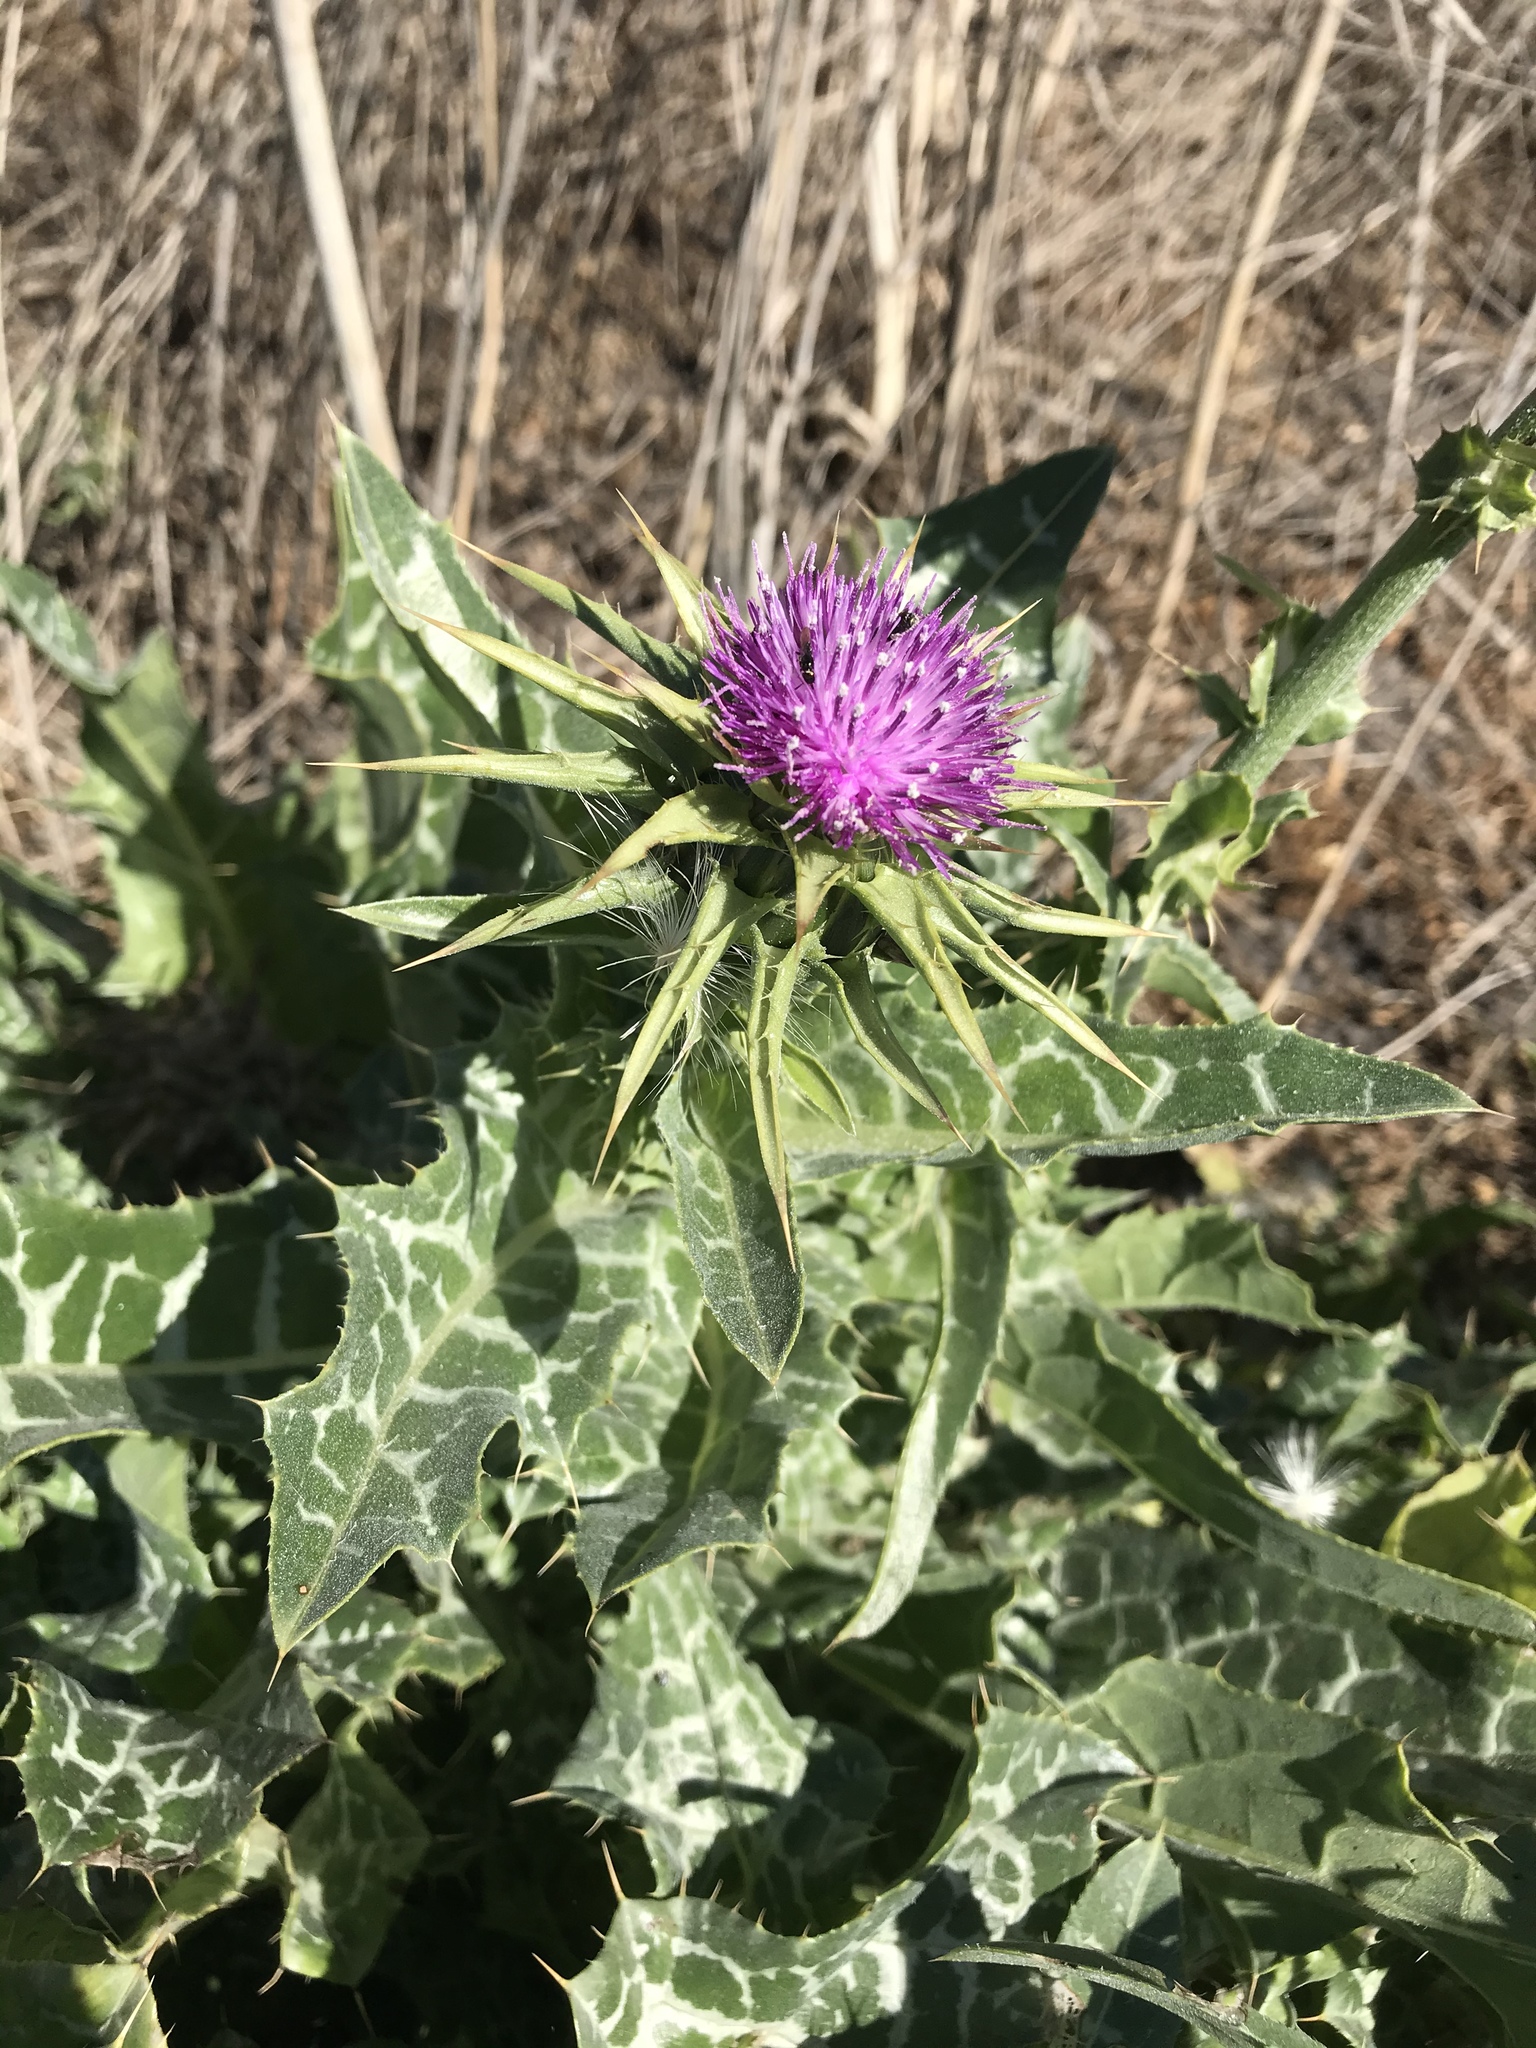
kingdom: Plantae
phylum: Tracheophyta
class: Magnoliopsida
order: Asterales
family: Asteraceae
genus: Silybum
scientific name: Silybum marianum
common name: Milk thistle
